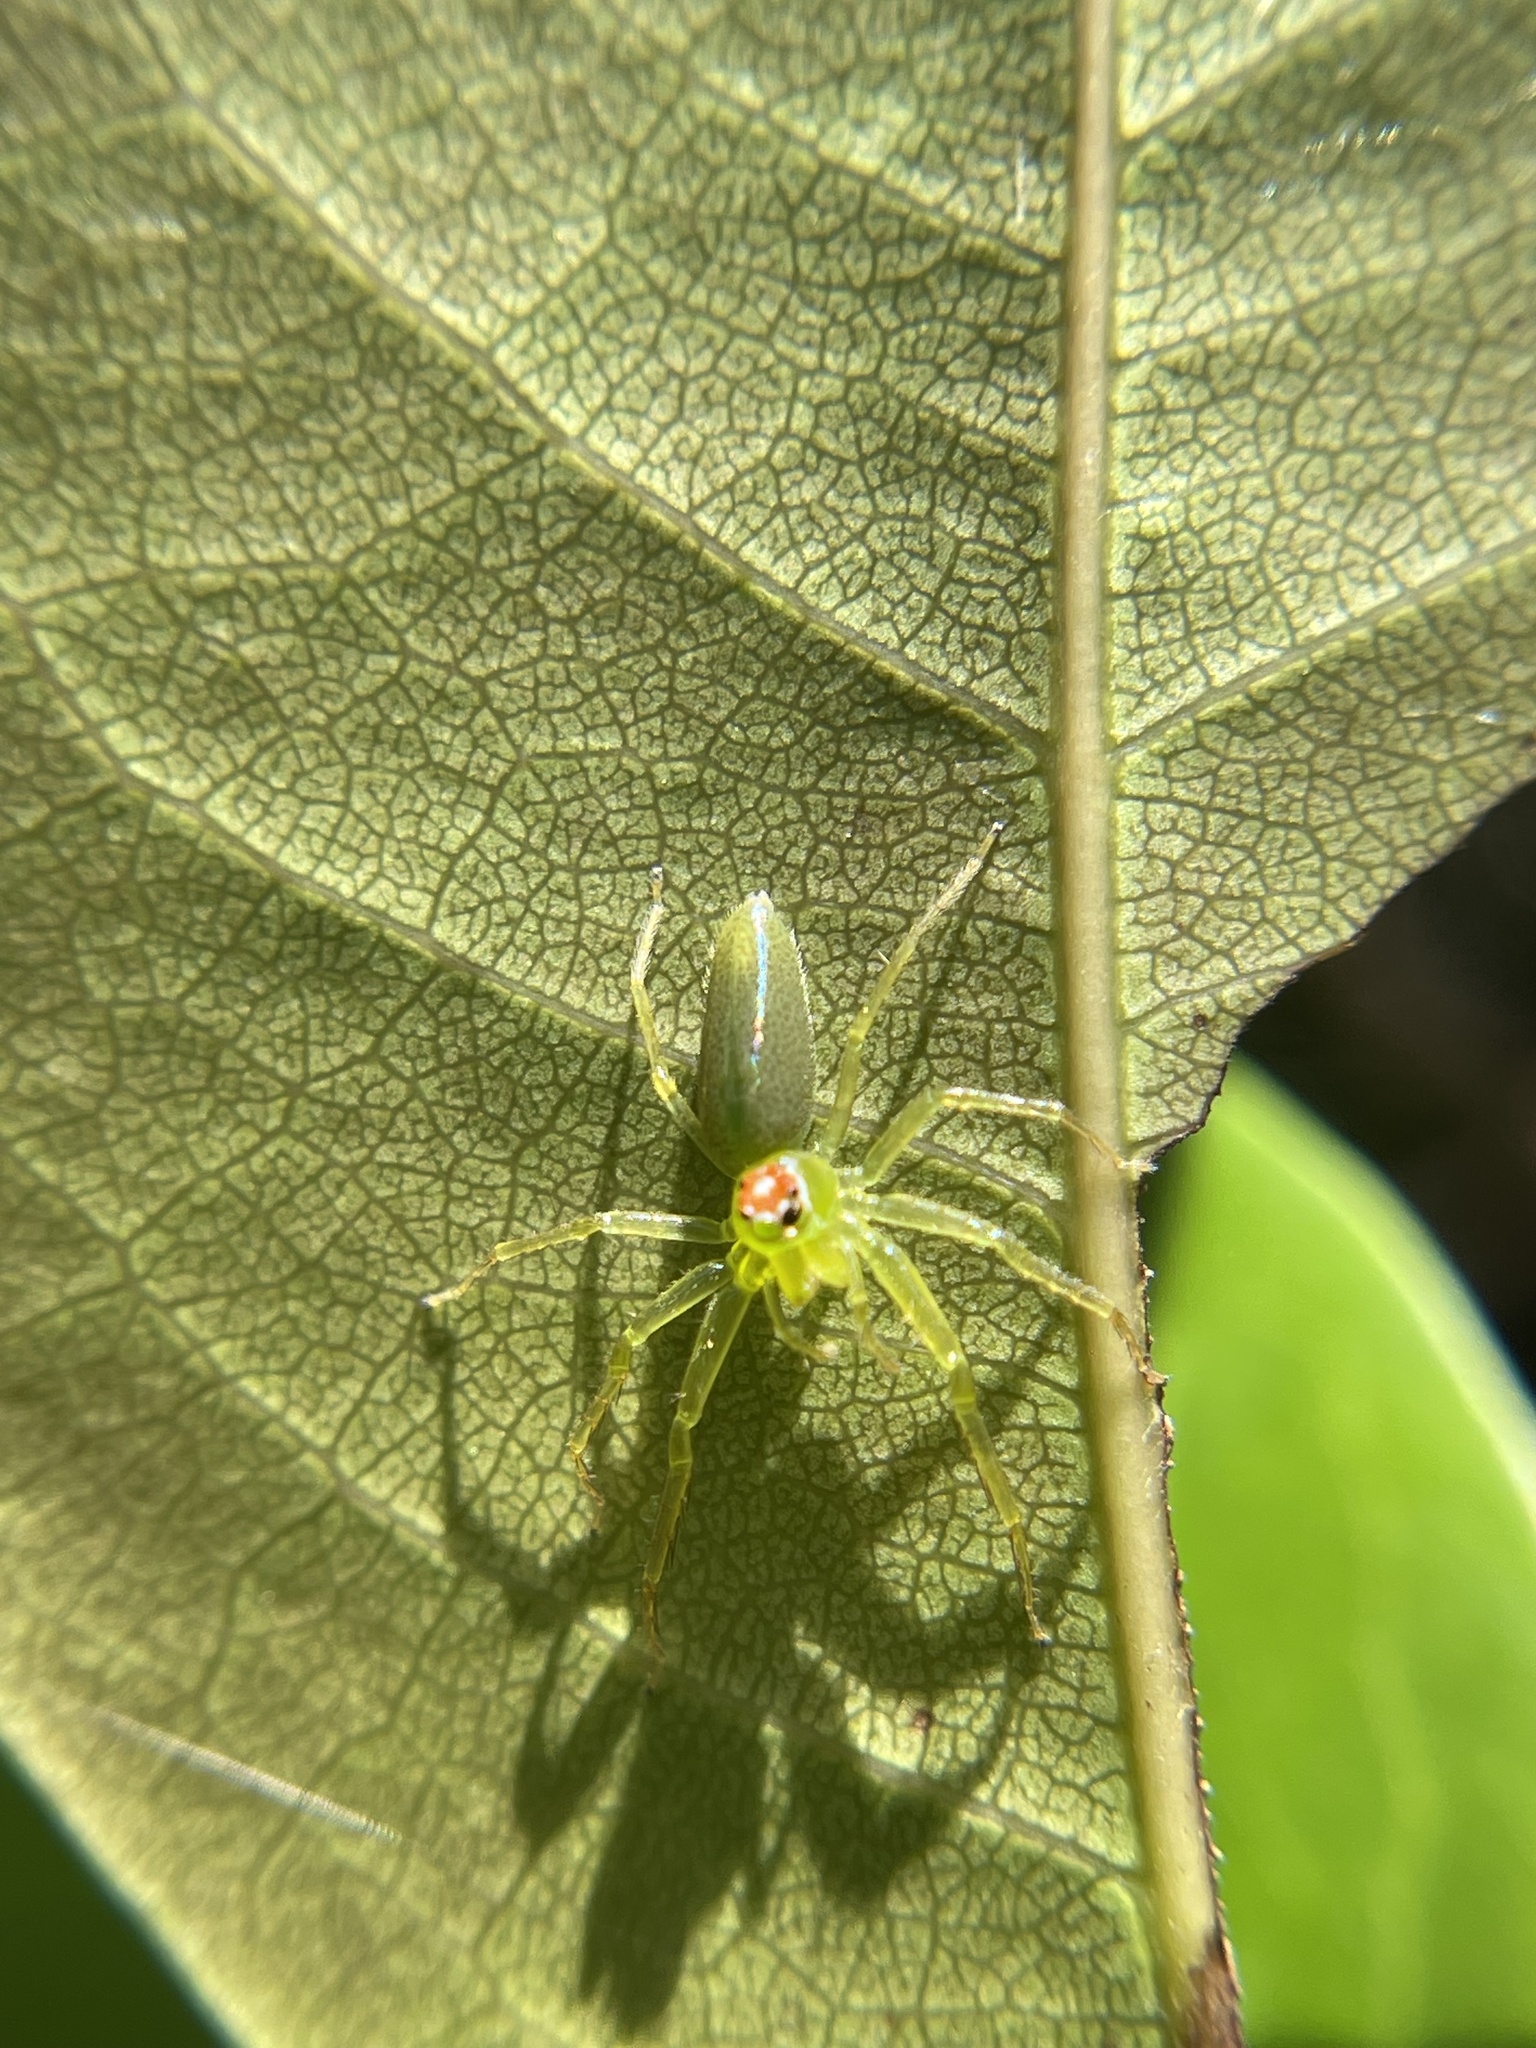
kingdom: Animalia
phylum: Arthropoda
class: Arachnida
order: Araneae
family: Salticidae
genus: Lyssomanes
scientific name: Lyssomanes viridis
